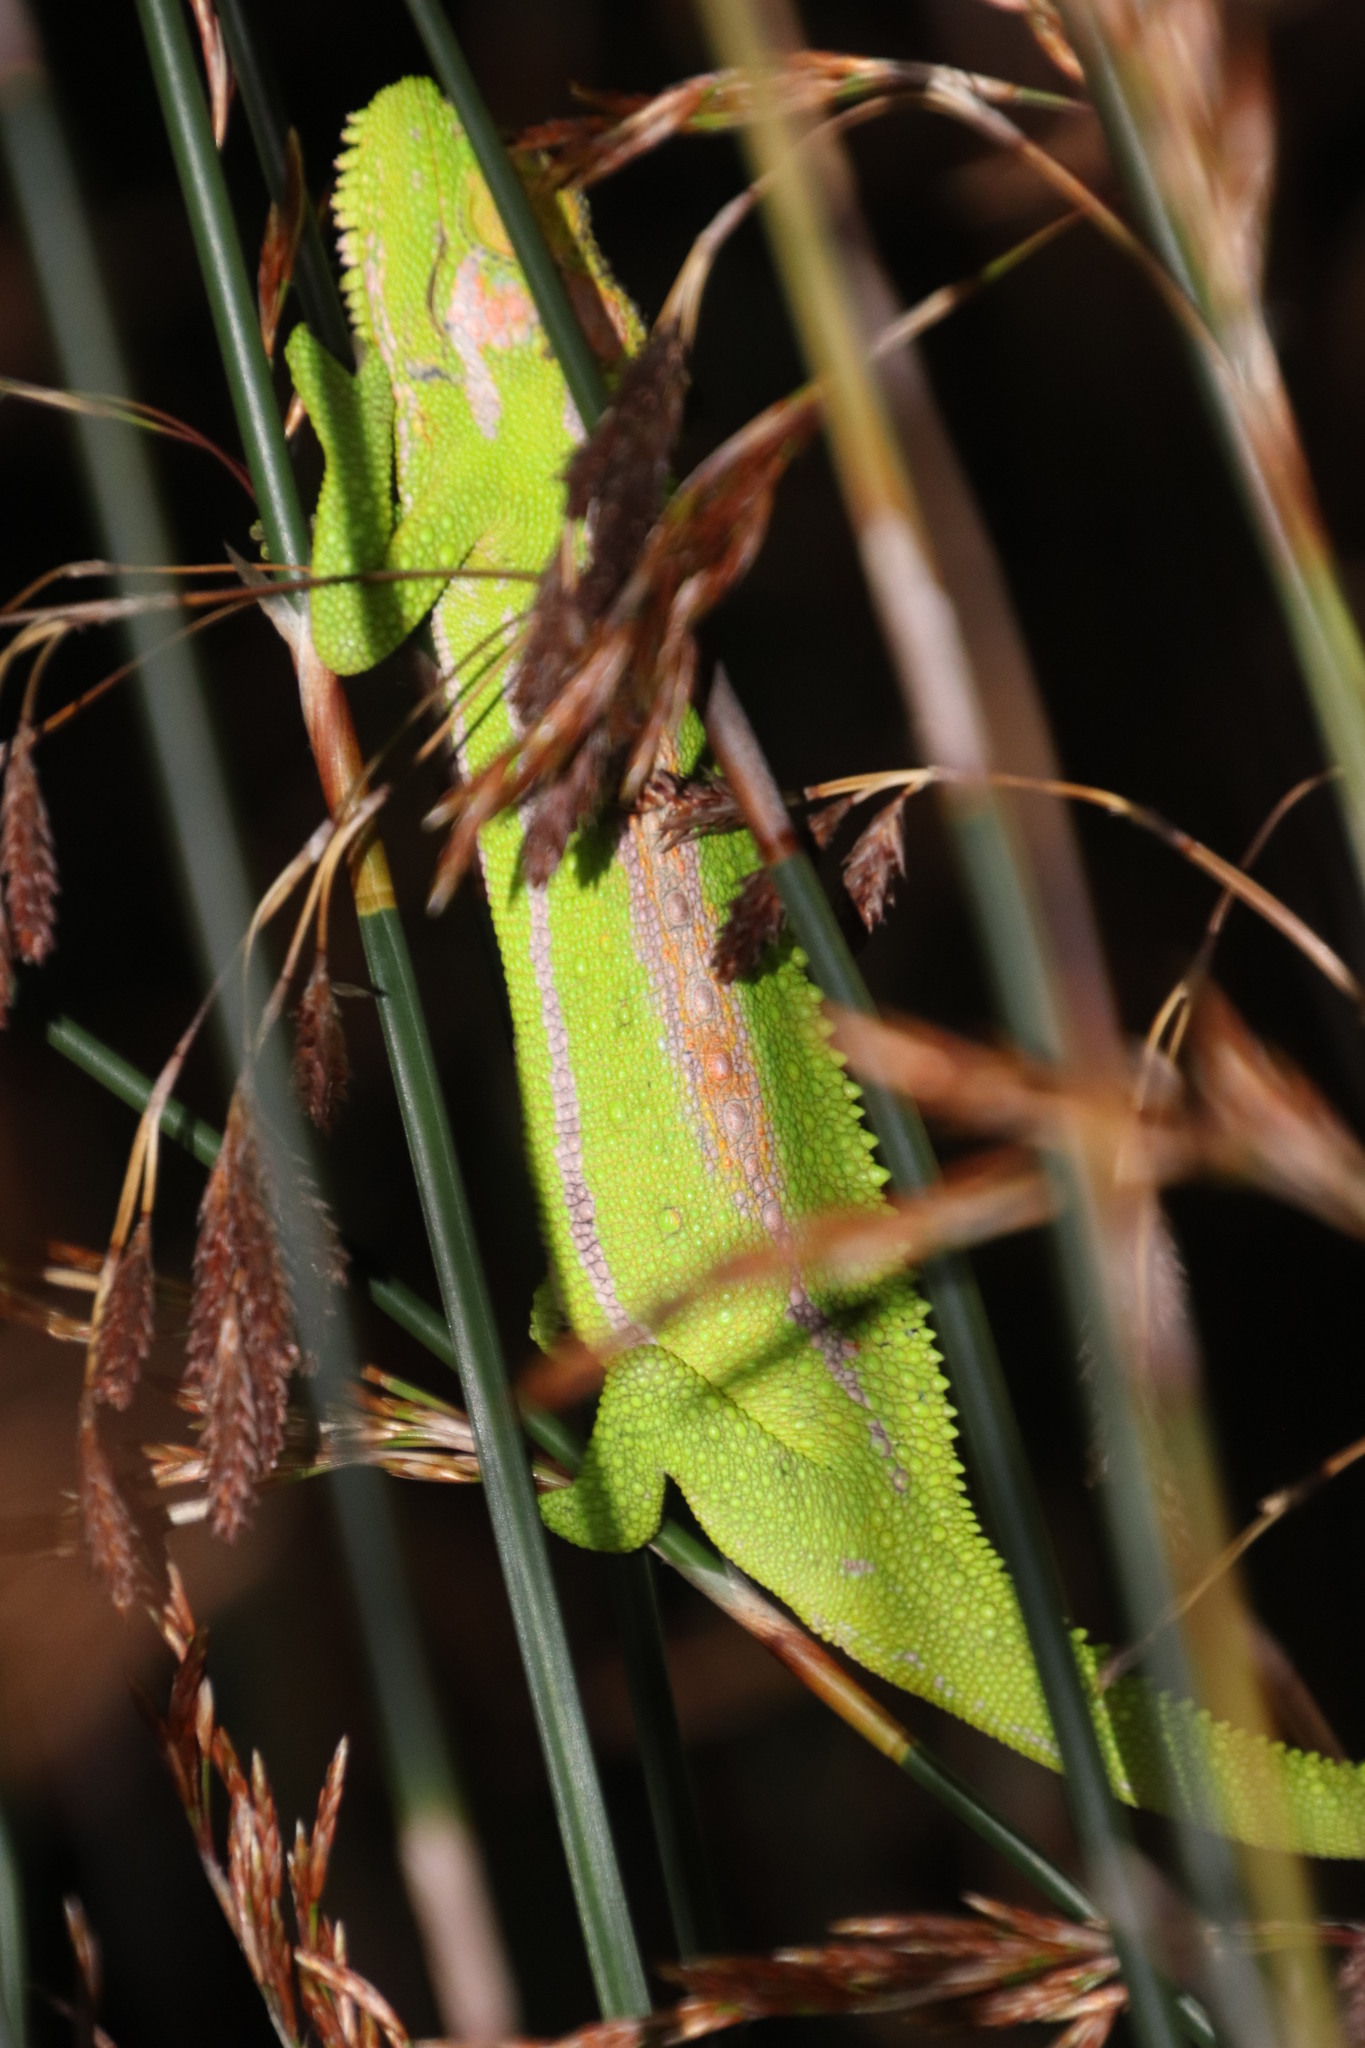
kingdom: Animalia
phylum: Chordata
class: Squamata
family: Chamaeleonidae
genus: Bradypodion
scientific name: Bradypodion pumilum
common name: Cape dwarf chameleon
